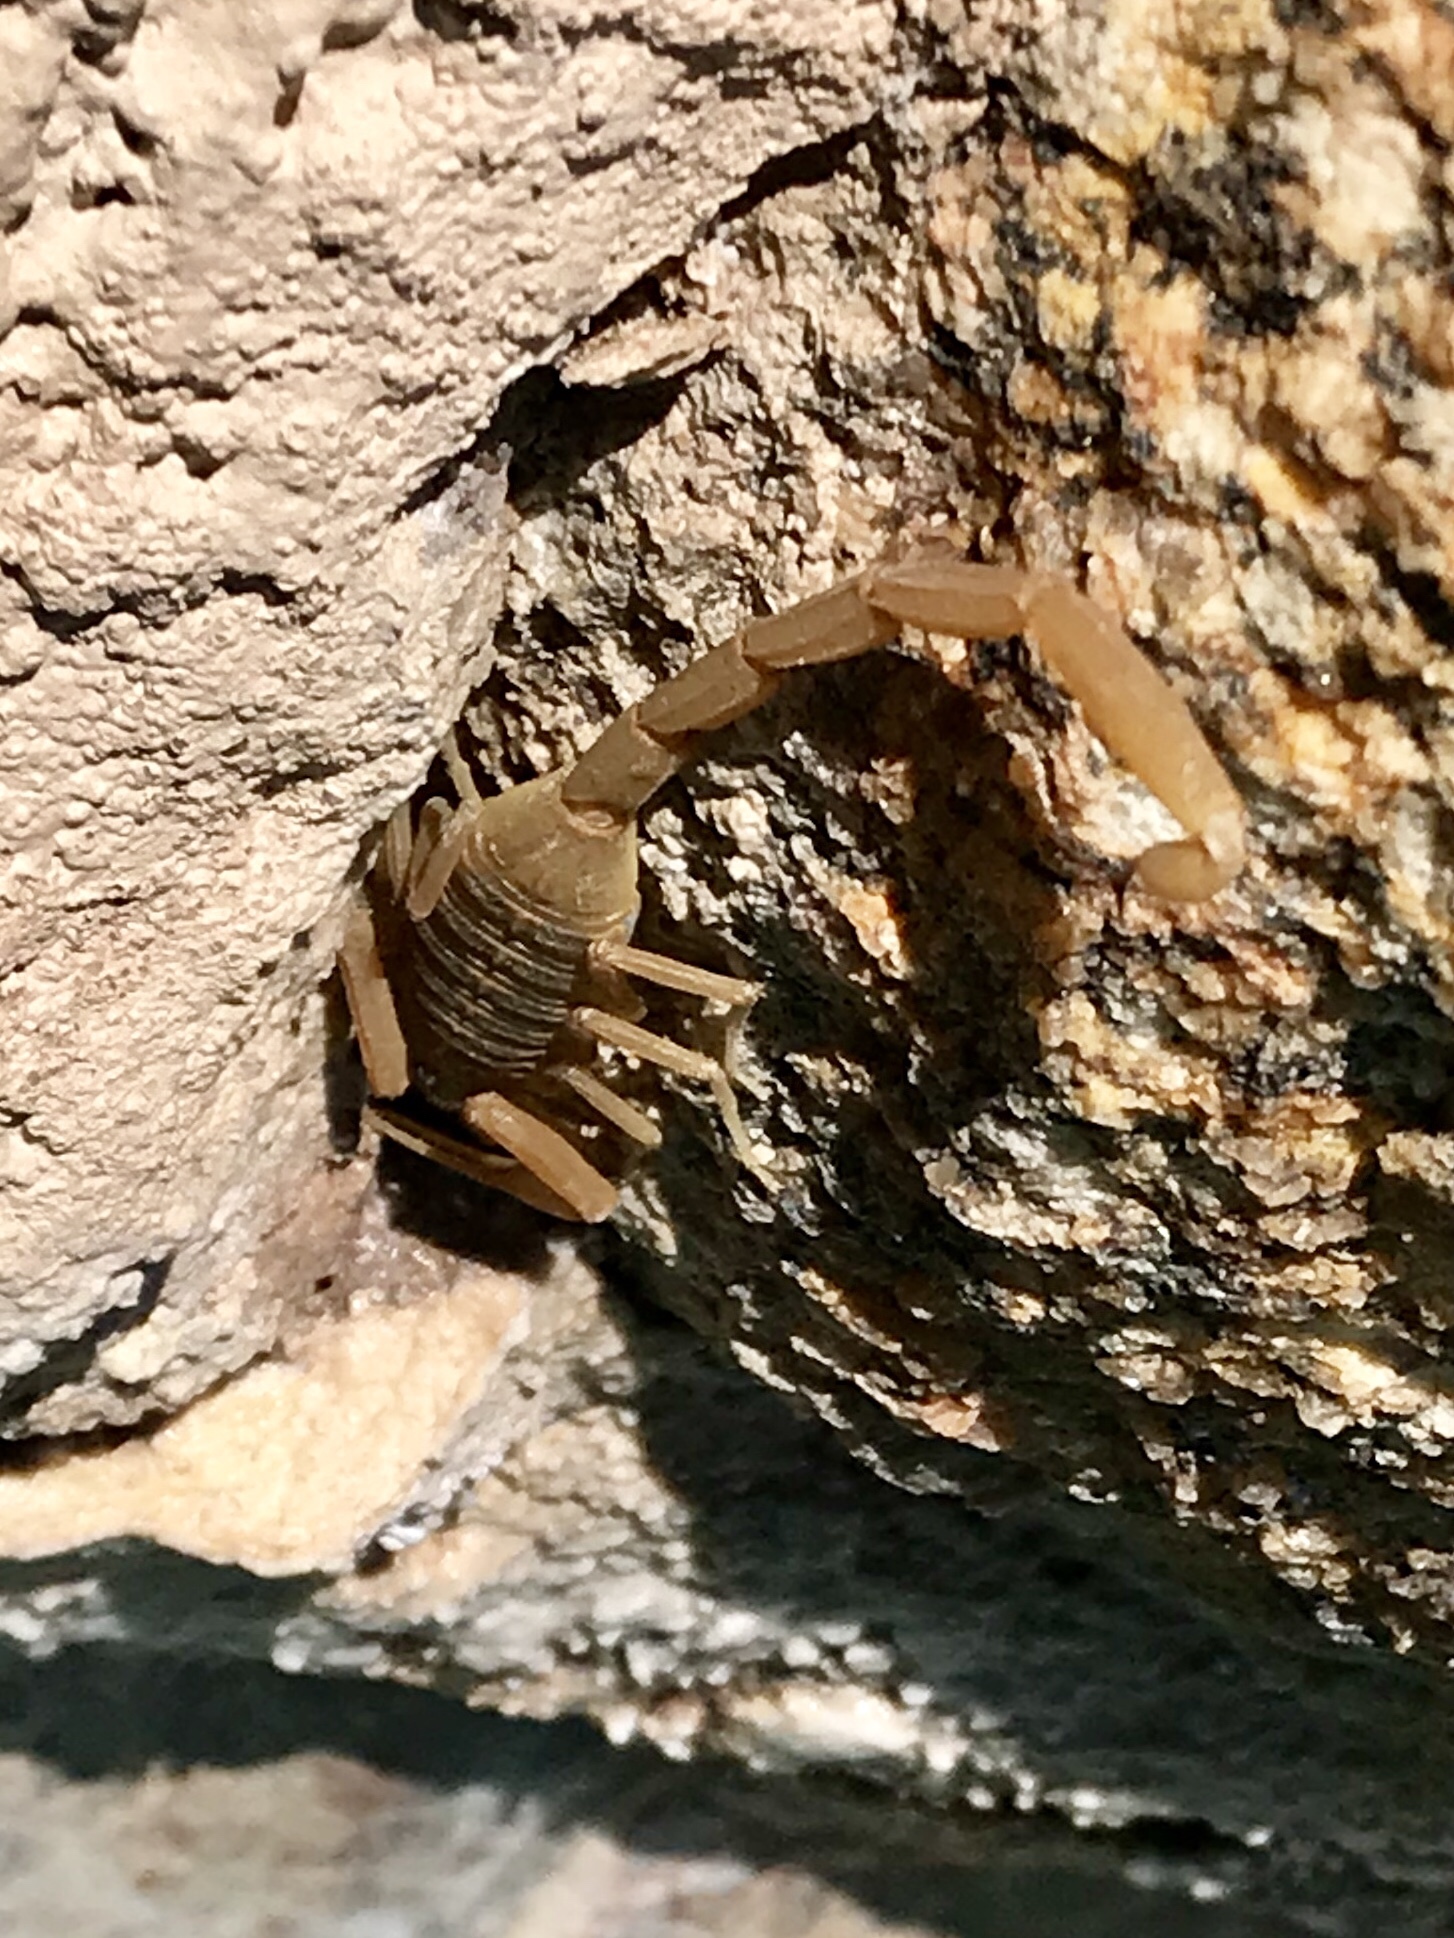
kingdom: Animalia
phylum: Arthropoda
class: Arachnida
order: Scorpiones
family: Buthidae
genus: Centruroides
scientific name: Centruroides sculpturatus
